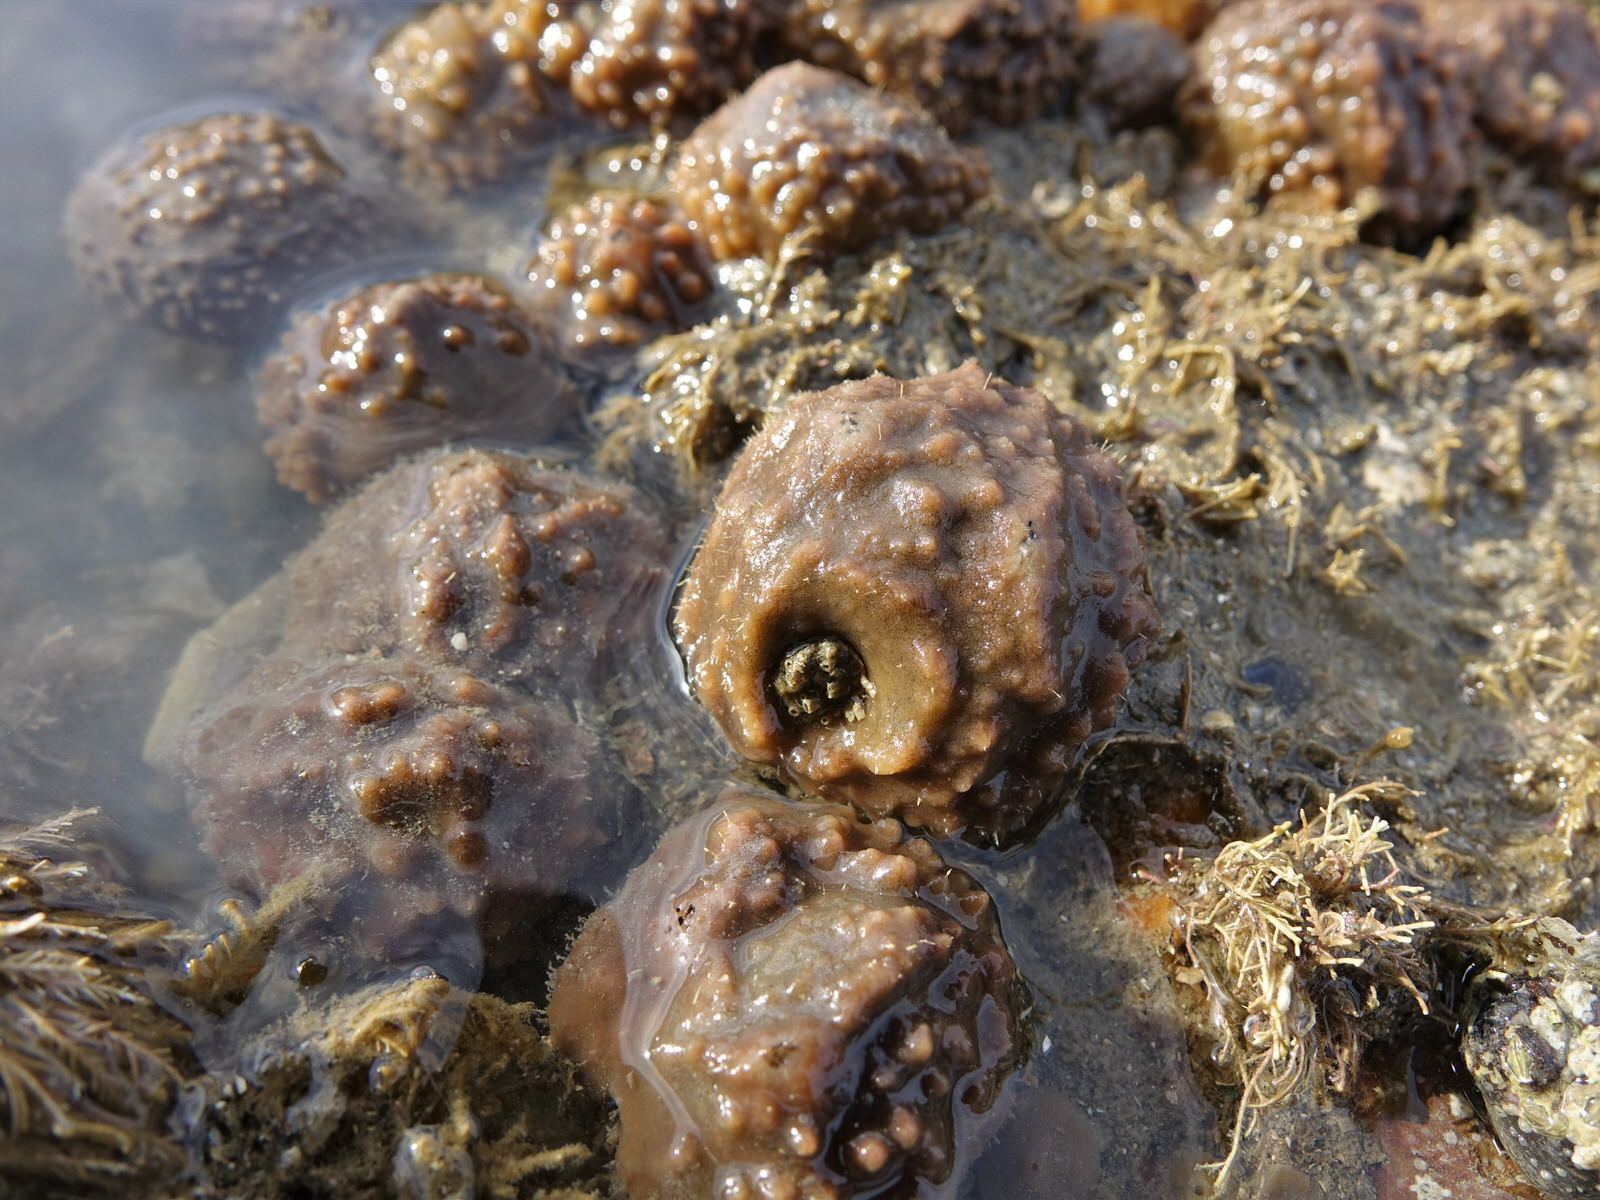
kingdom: Animalia
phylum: Porifera
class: Demospongiae
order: Suberitida
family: Suberitidae
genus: Aaptos
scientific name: Aaptos tenta
